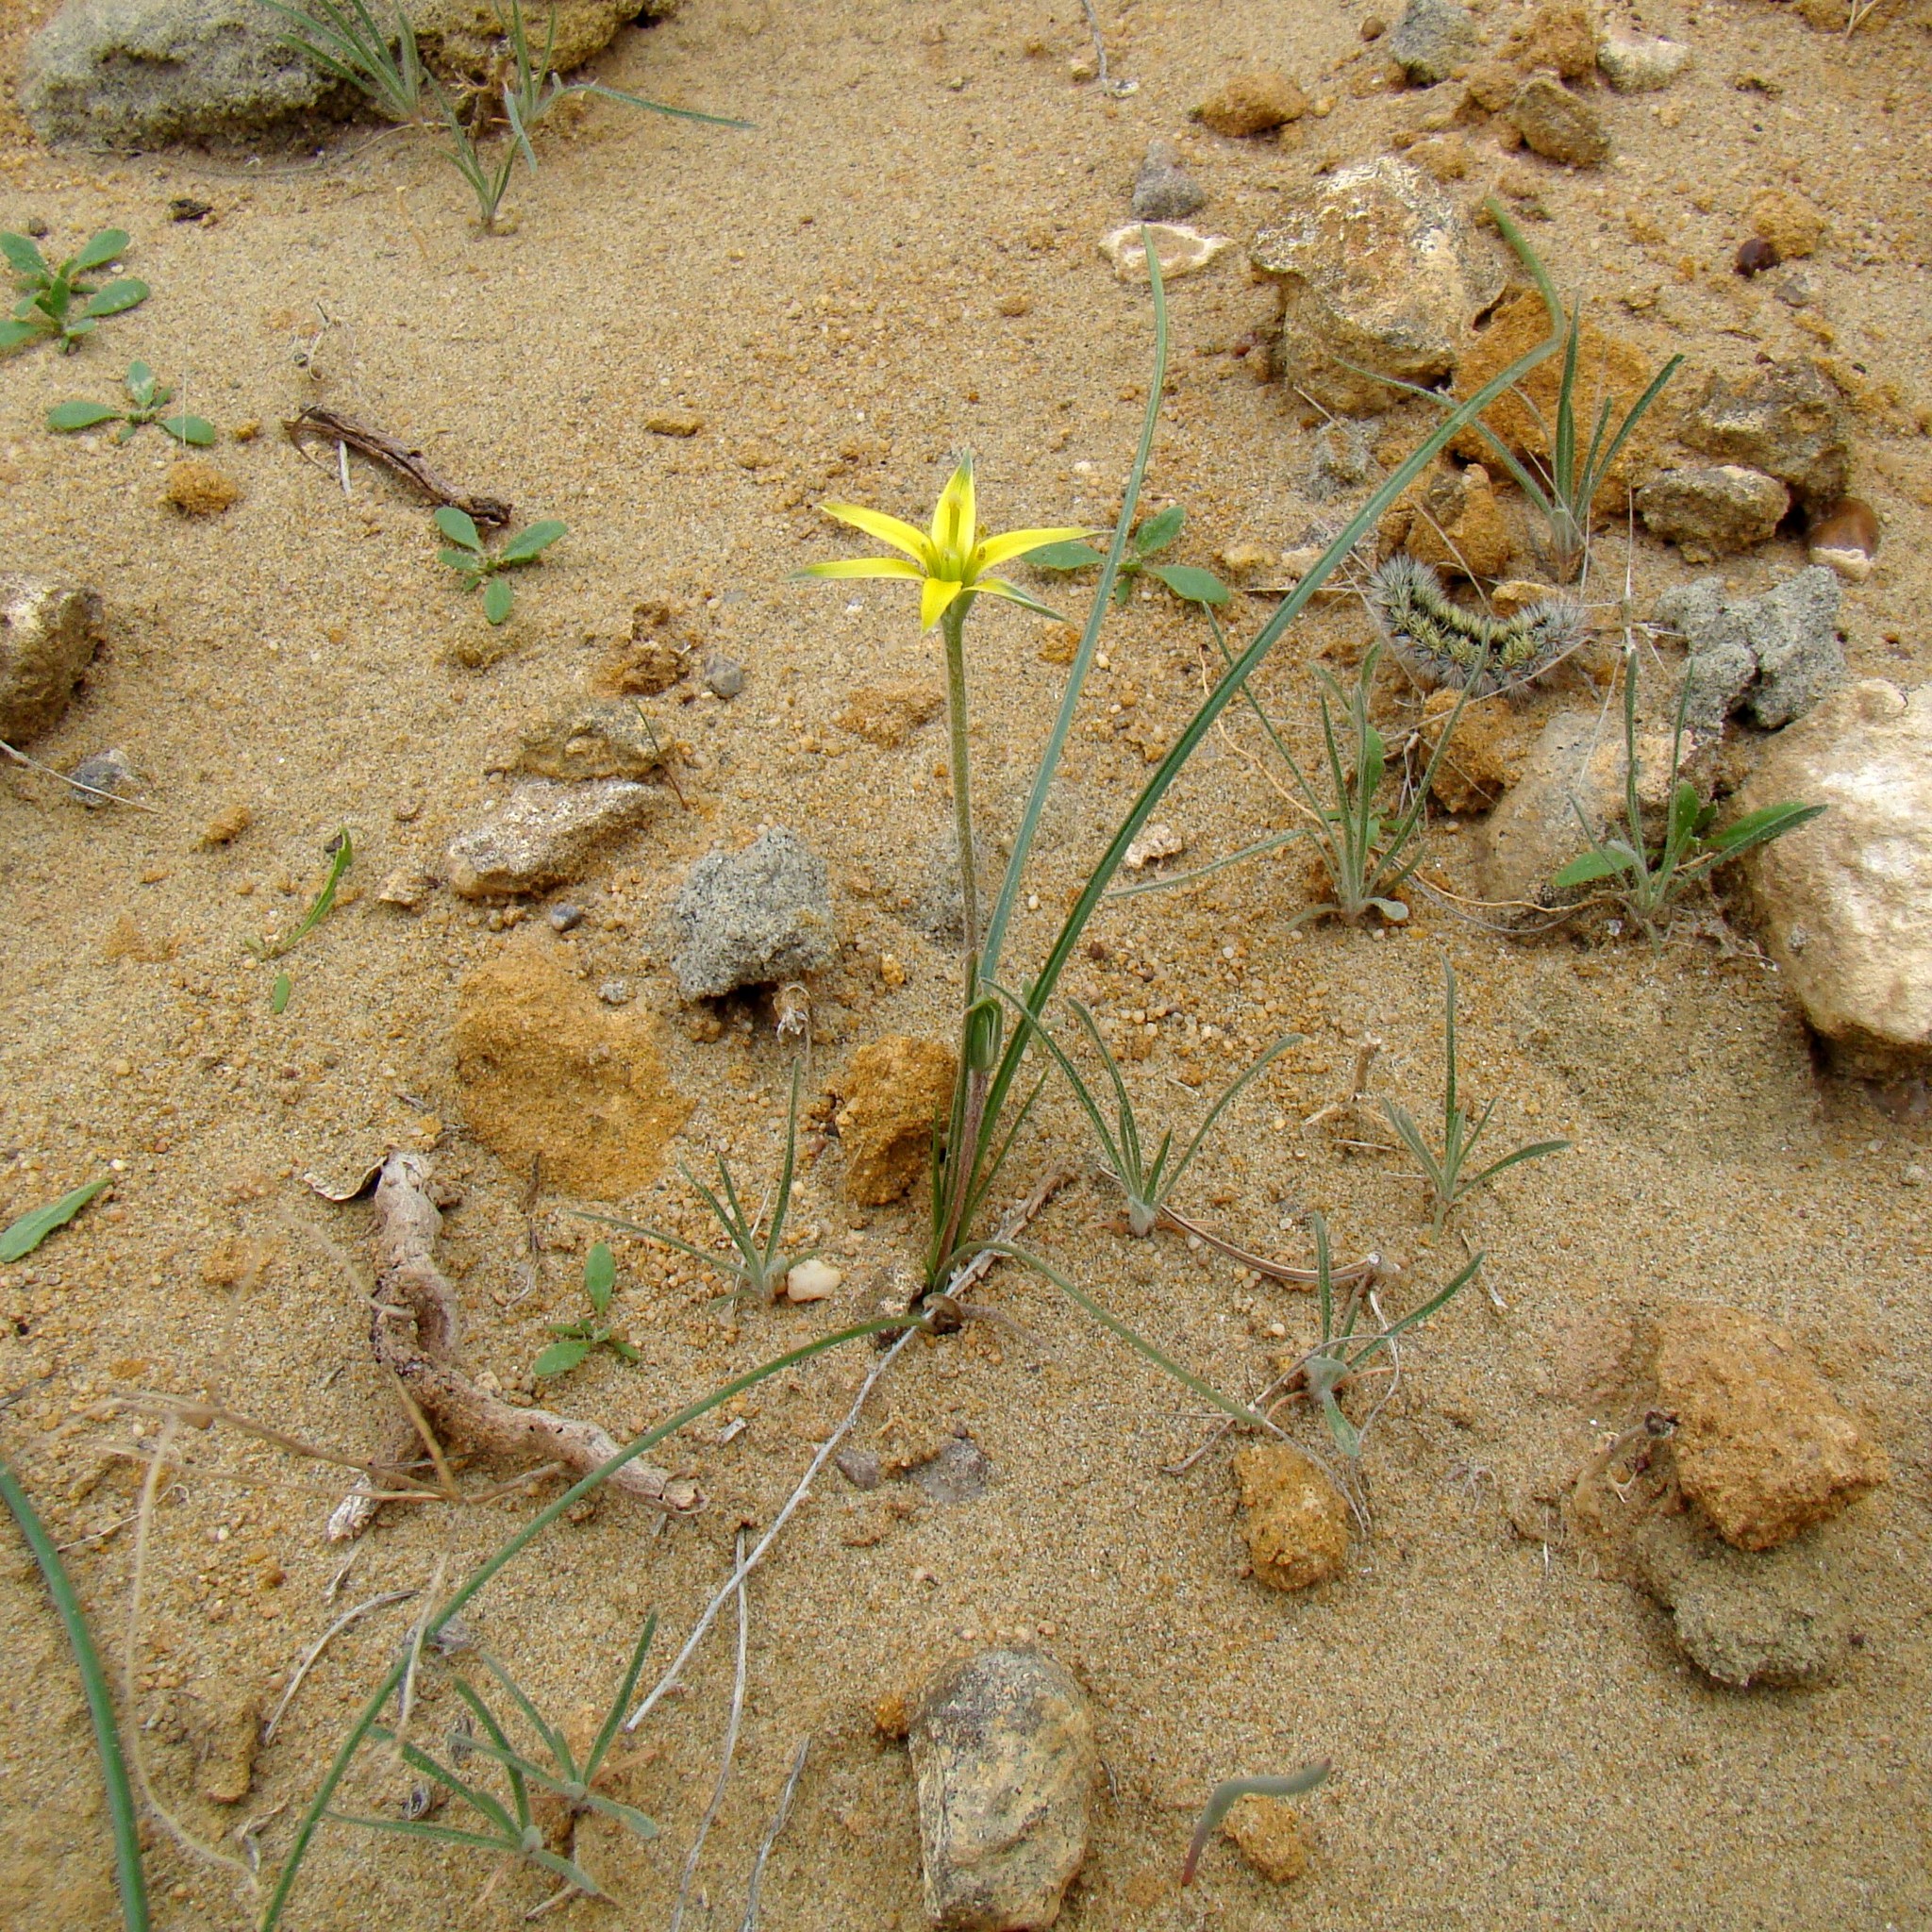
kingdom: Plantae
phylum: Tracheophyta
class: Liliopsida
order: Liliales
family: Liliaceae
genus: Gagea
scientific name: Gagea divaricata
